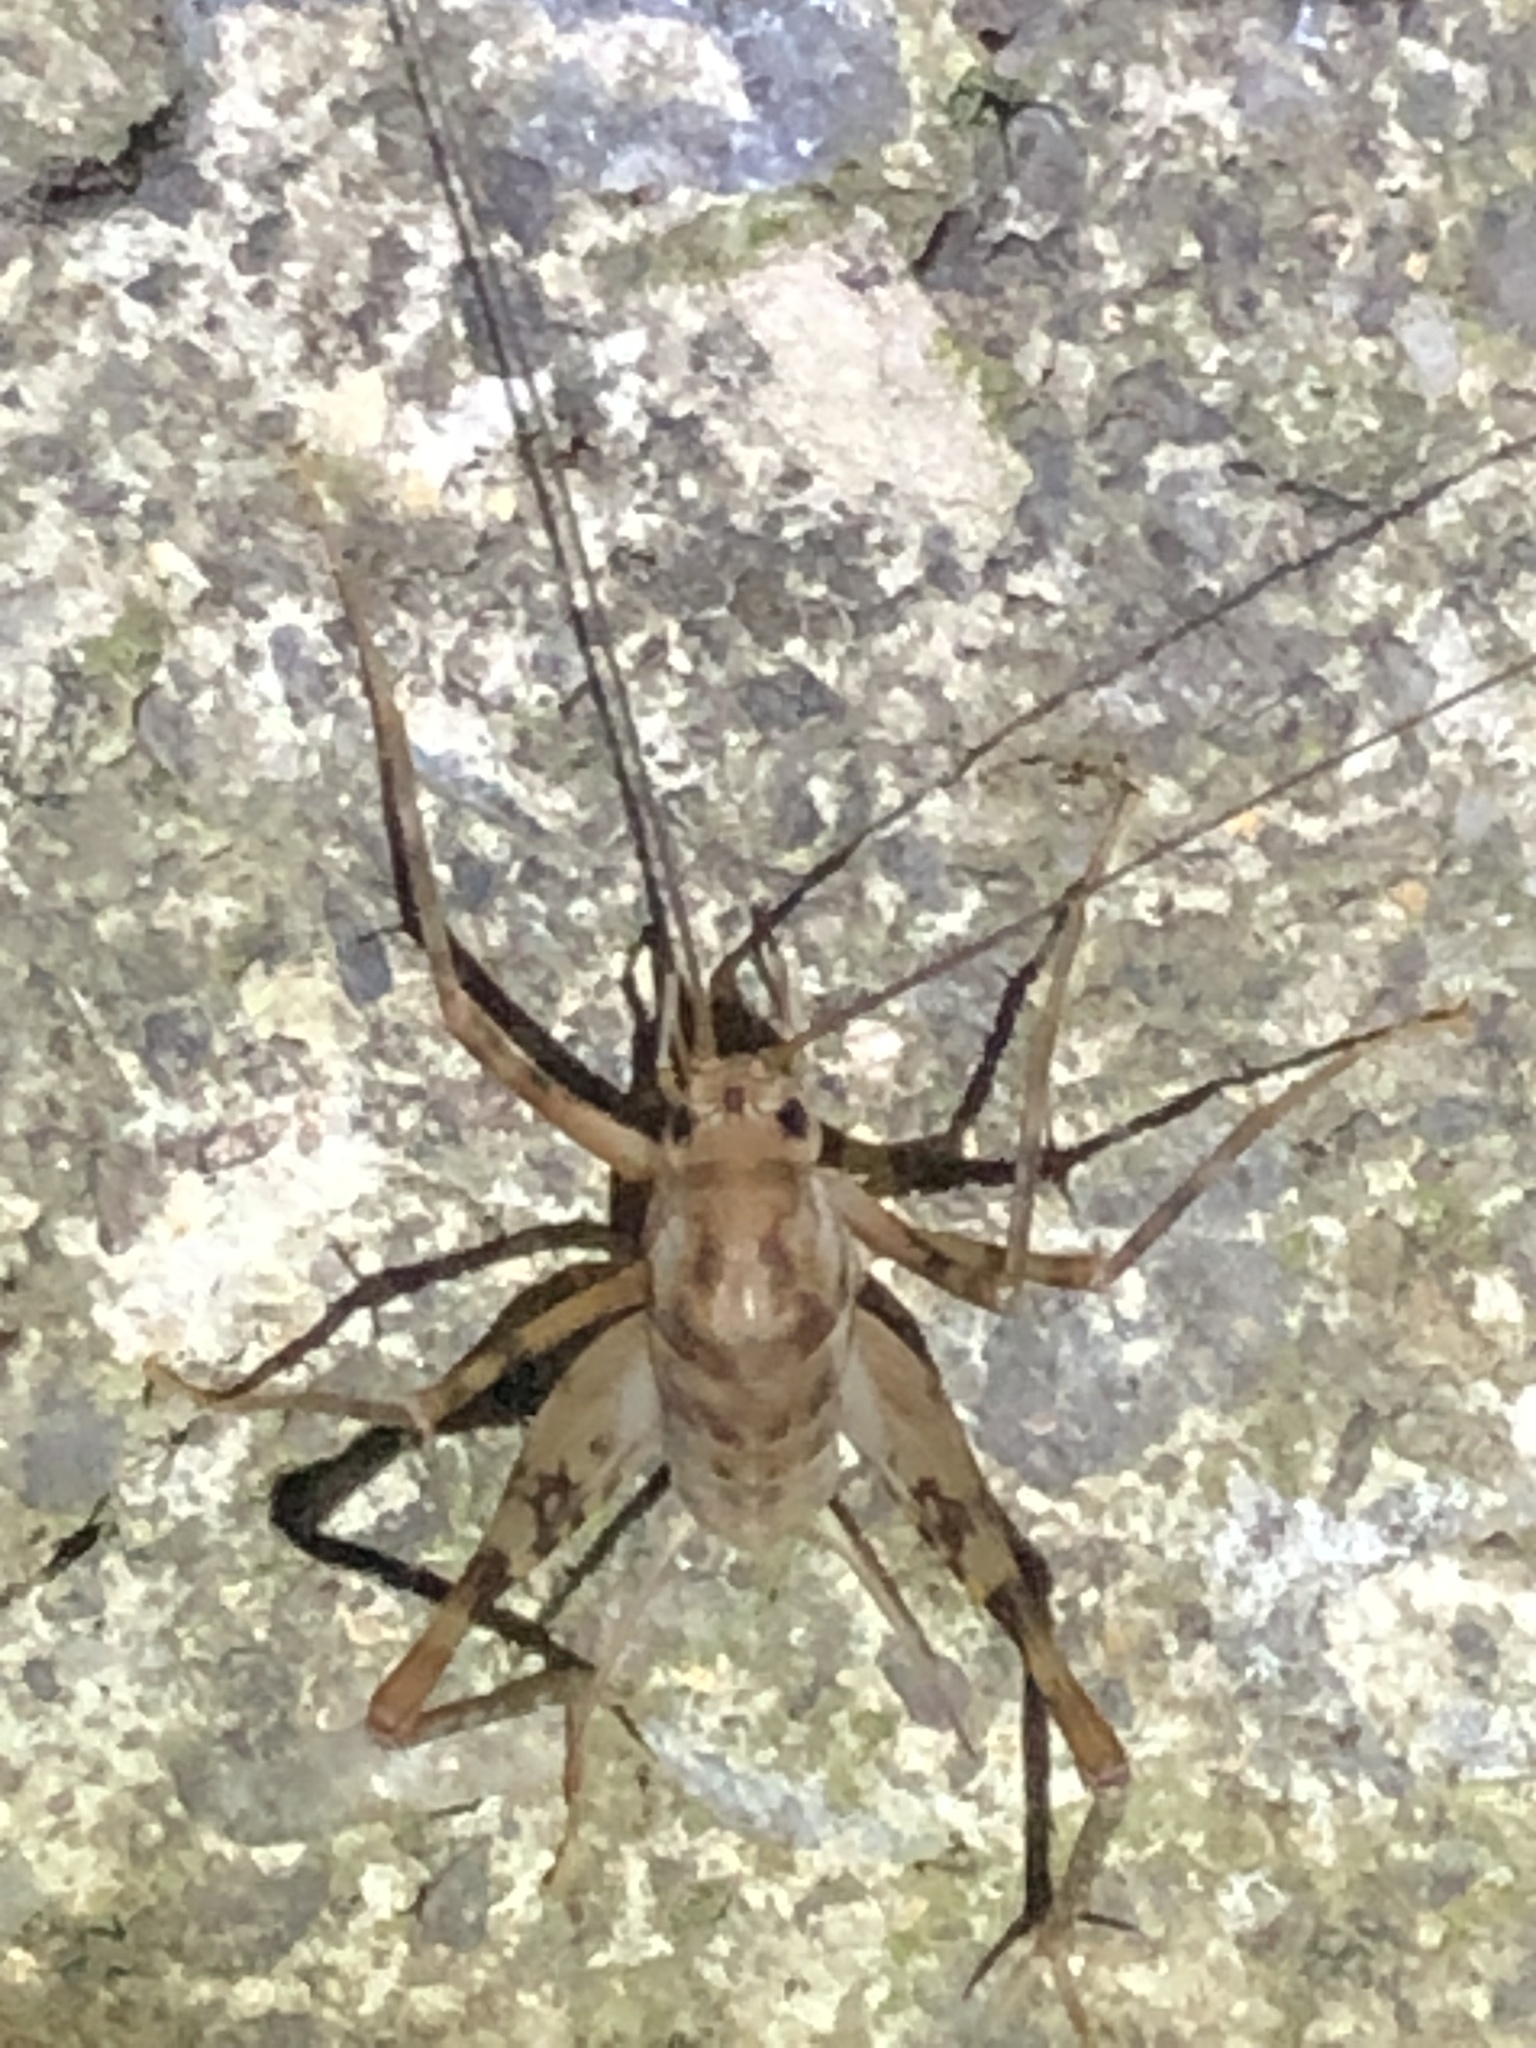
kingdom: Animalia
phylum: Arthropoda
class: Insecta
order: Orthoptera
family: Rhaphidophoridae
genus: Tachycines
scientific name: Tachycines asynamorus
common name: Greenhouse camel cricket
